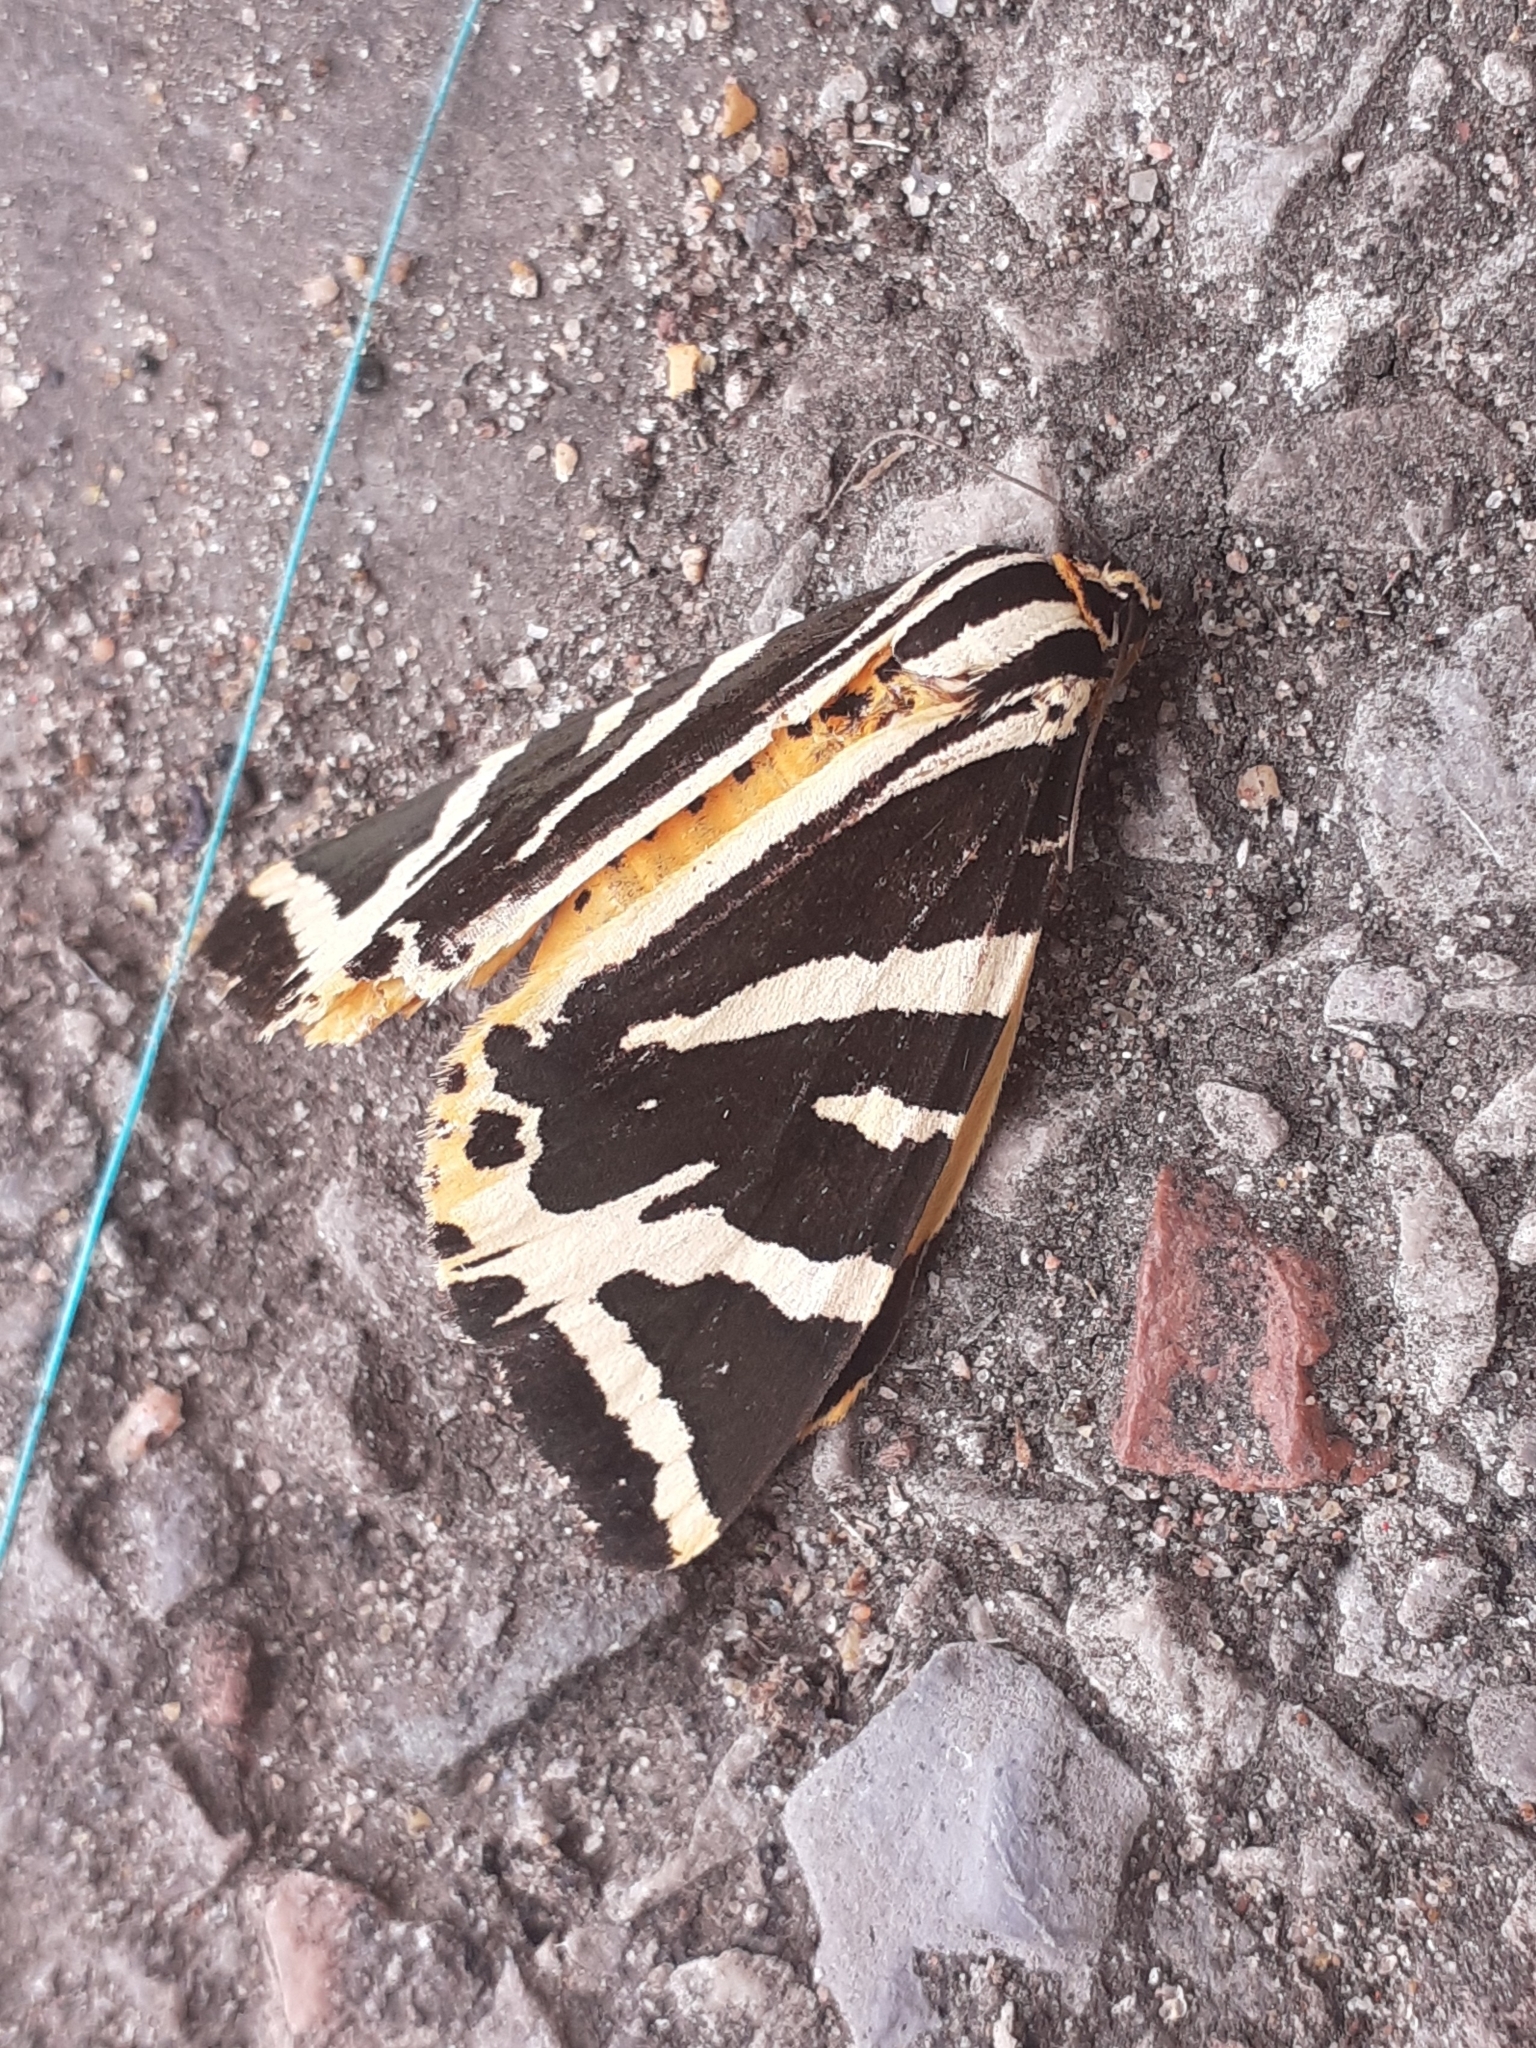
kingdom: Animalia
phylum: Arthropoda
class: Insecta
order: Lepidoptera
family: Erebidae
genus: Euplagia
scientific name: Euplagia quadripunctaria
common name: Jersey tiger
